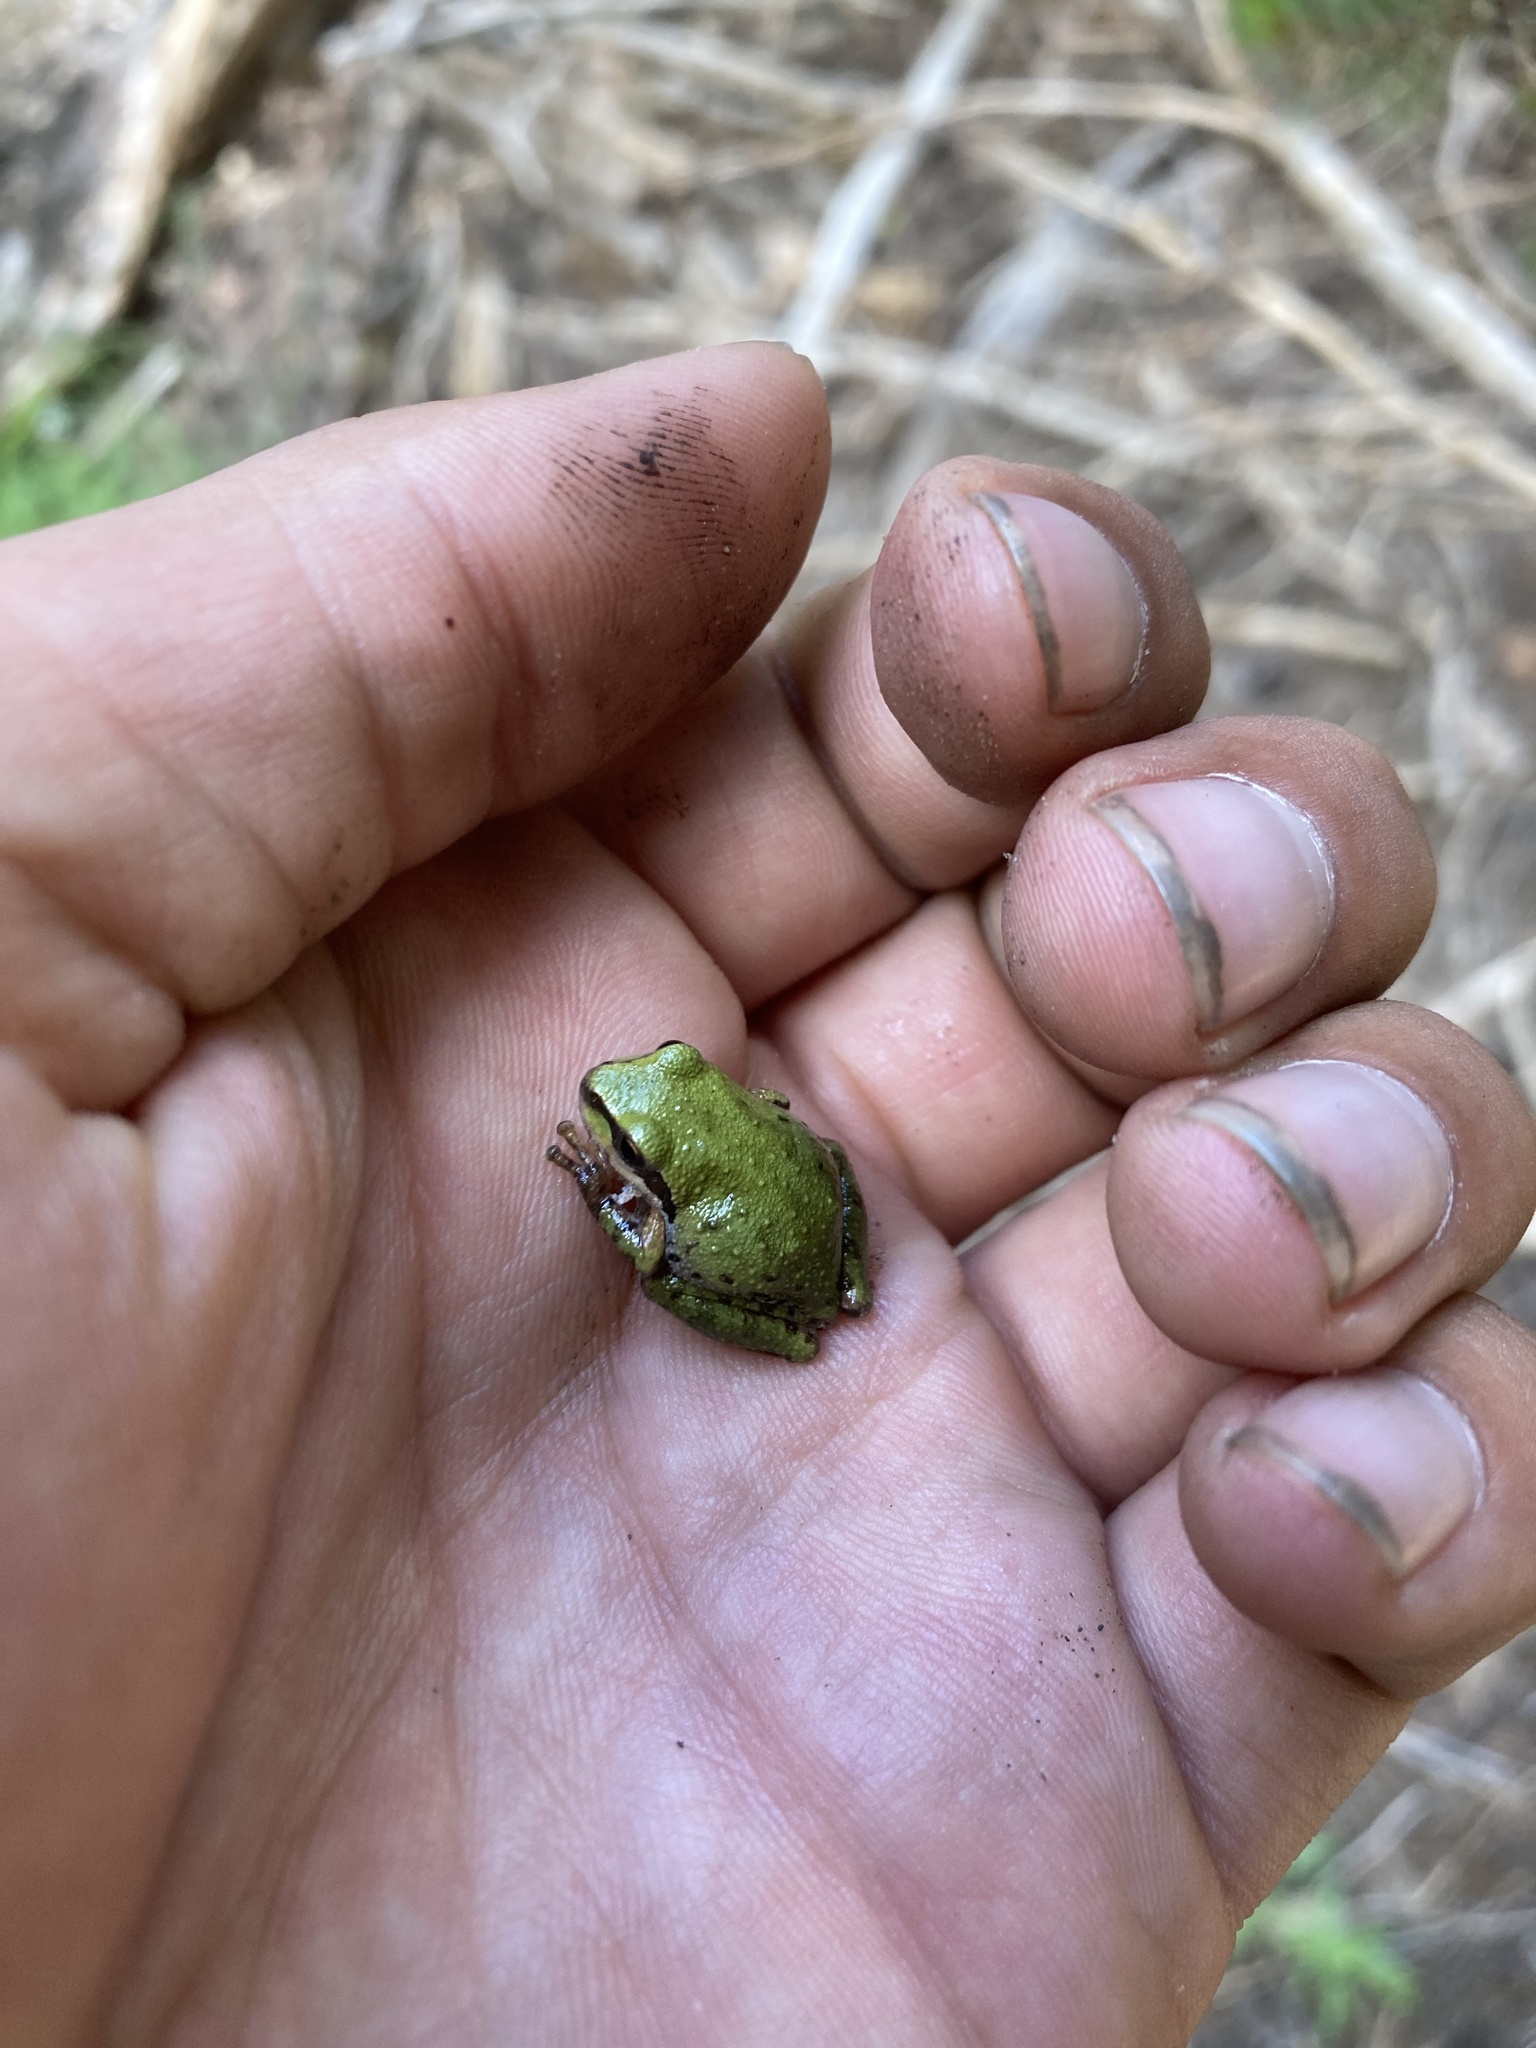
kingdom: Animalia
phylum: Chordata
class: Amphibia
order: Anura
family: Hylidae
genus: Pseudacris
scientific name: Pseudacris regilla
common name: Pacific chorus frog
